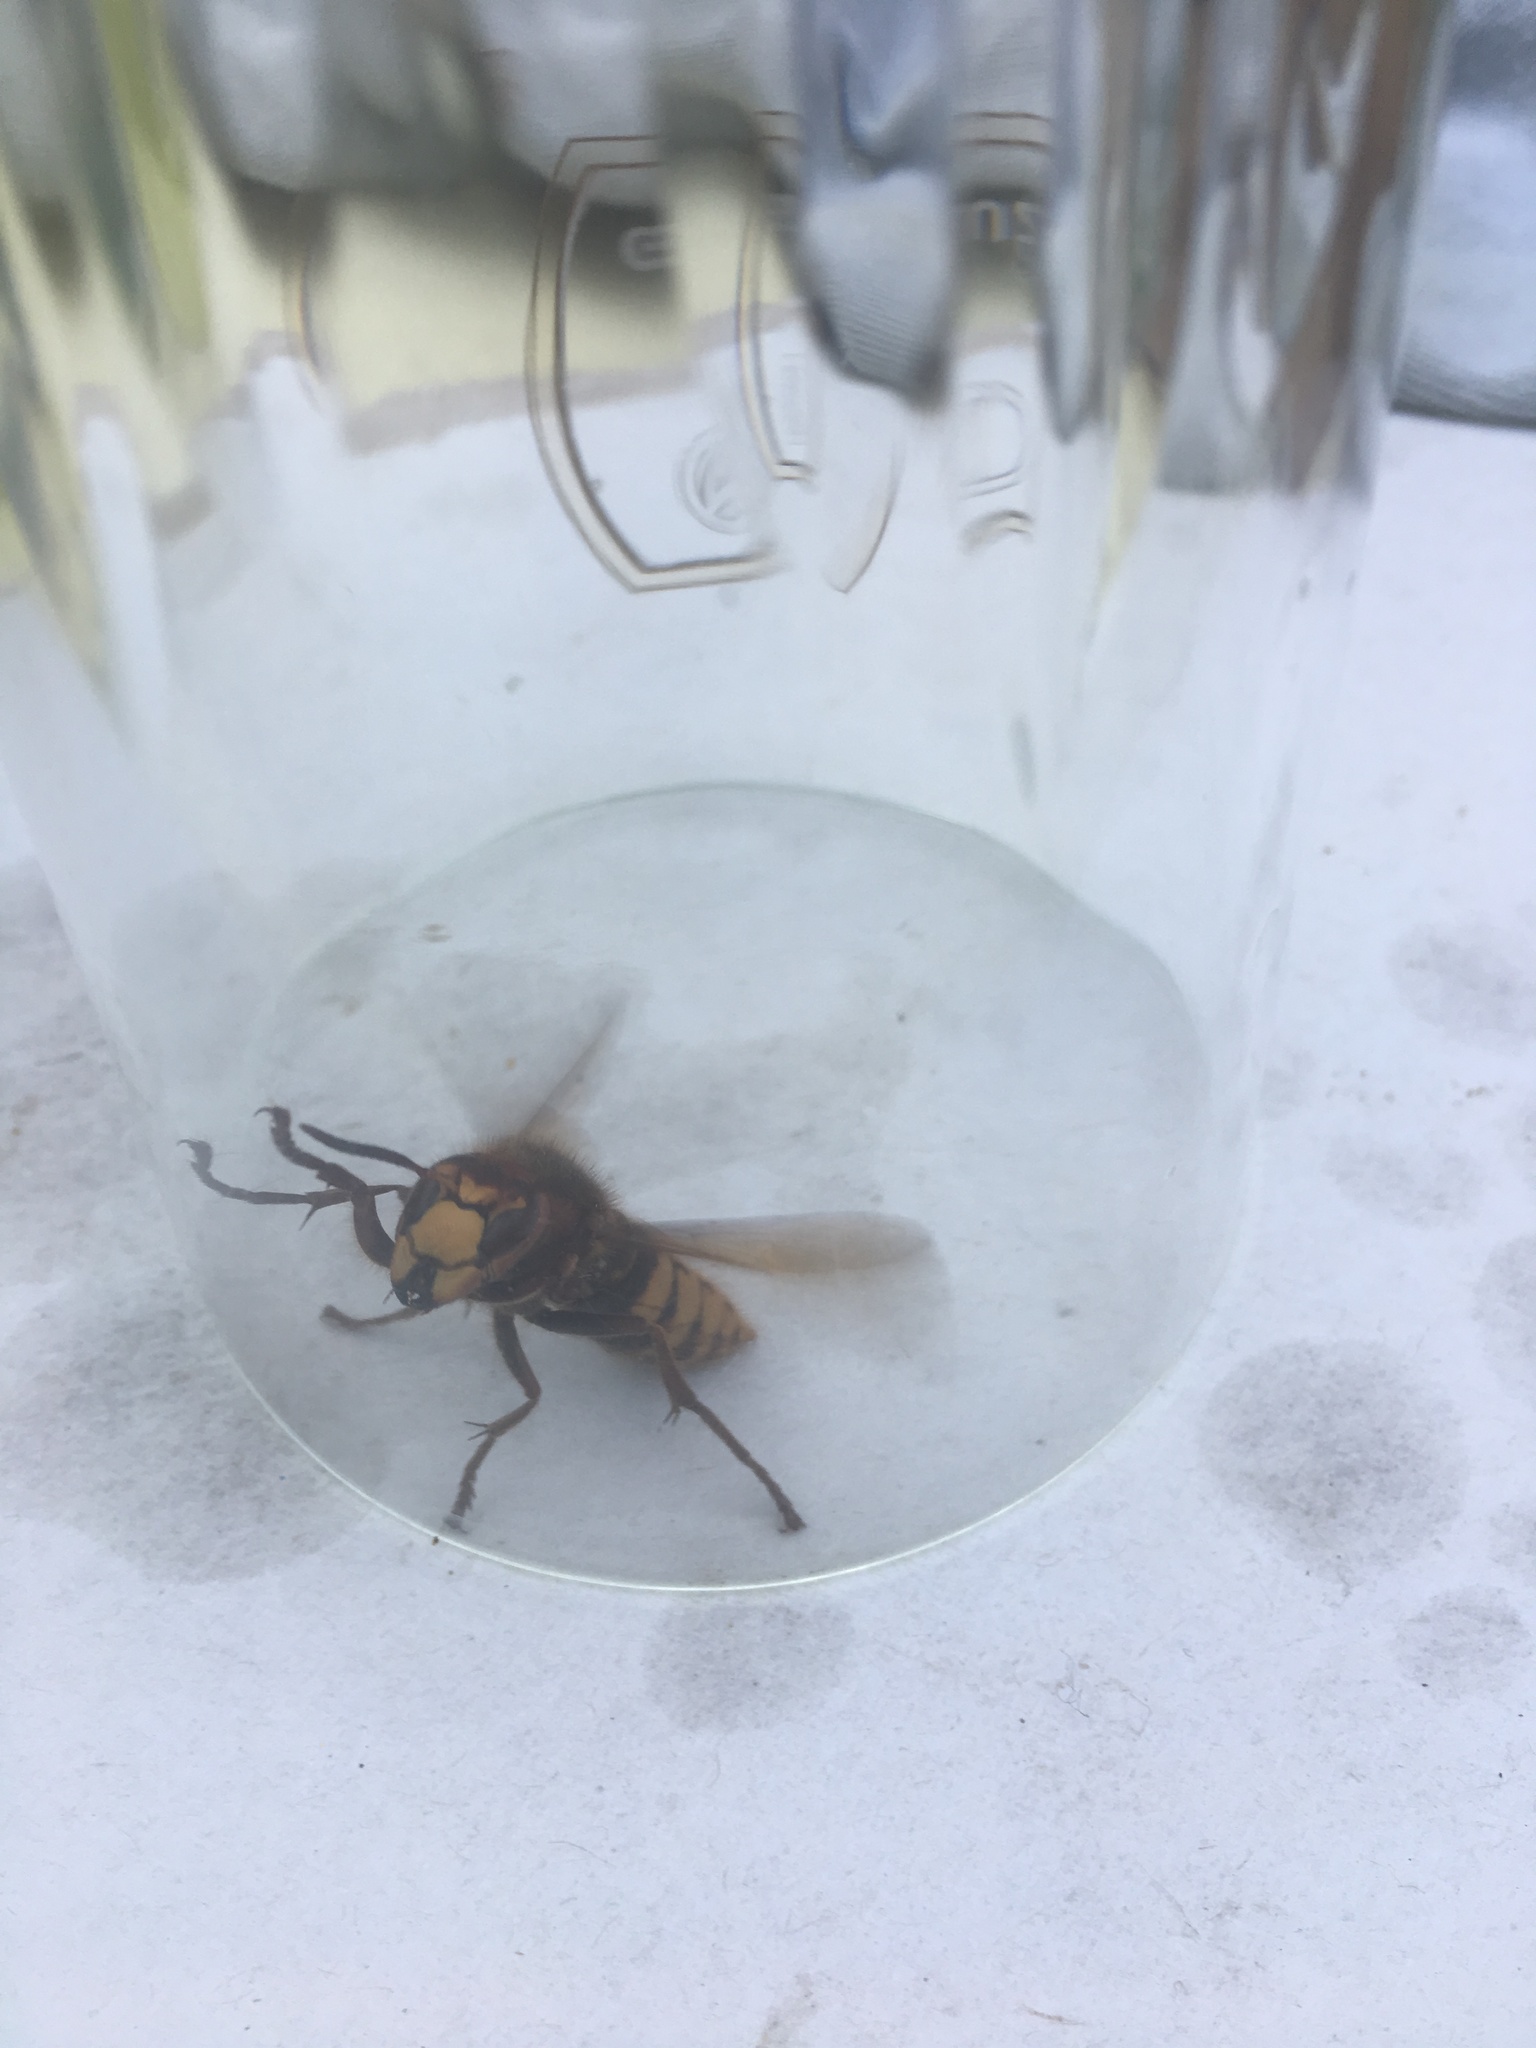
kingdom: Animalia
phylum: Arthropoda
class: Insecta
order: Hymenoptera
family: Vespidae
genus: Vespa
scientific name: Vespa crabro
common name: Hornet
